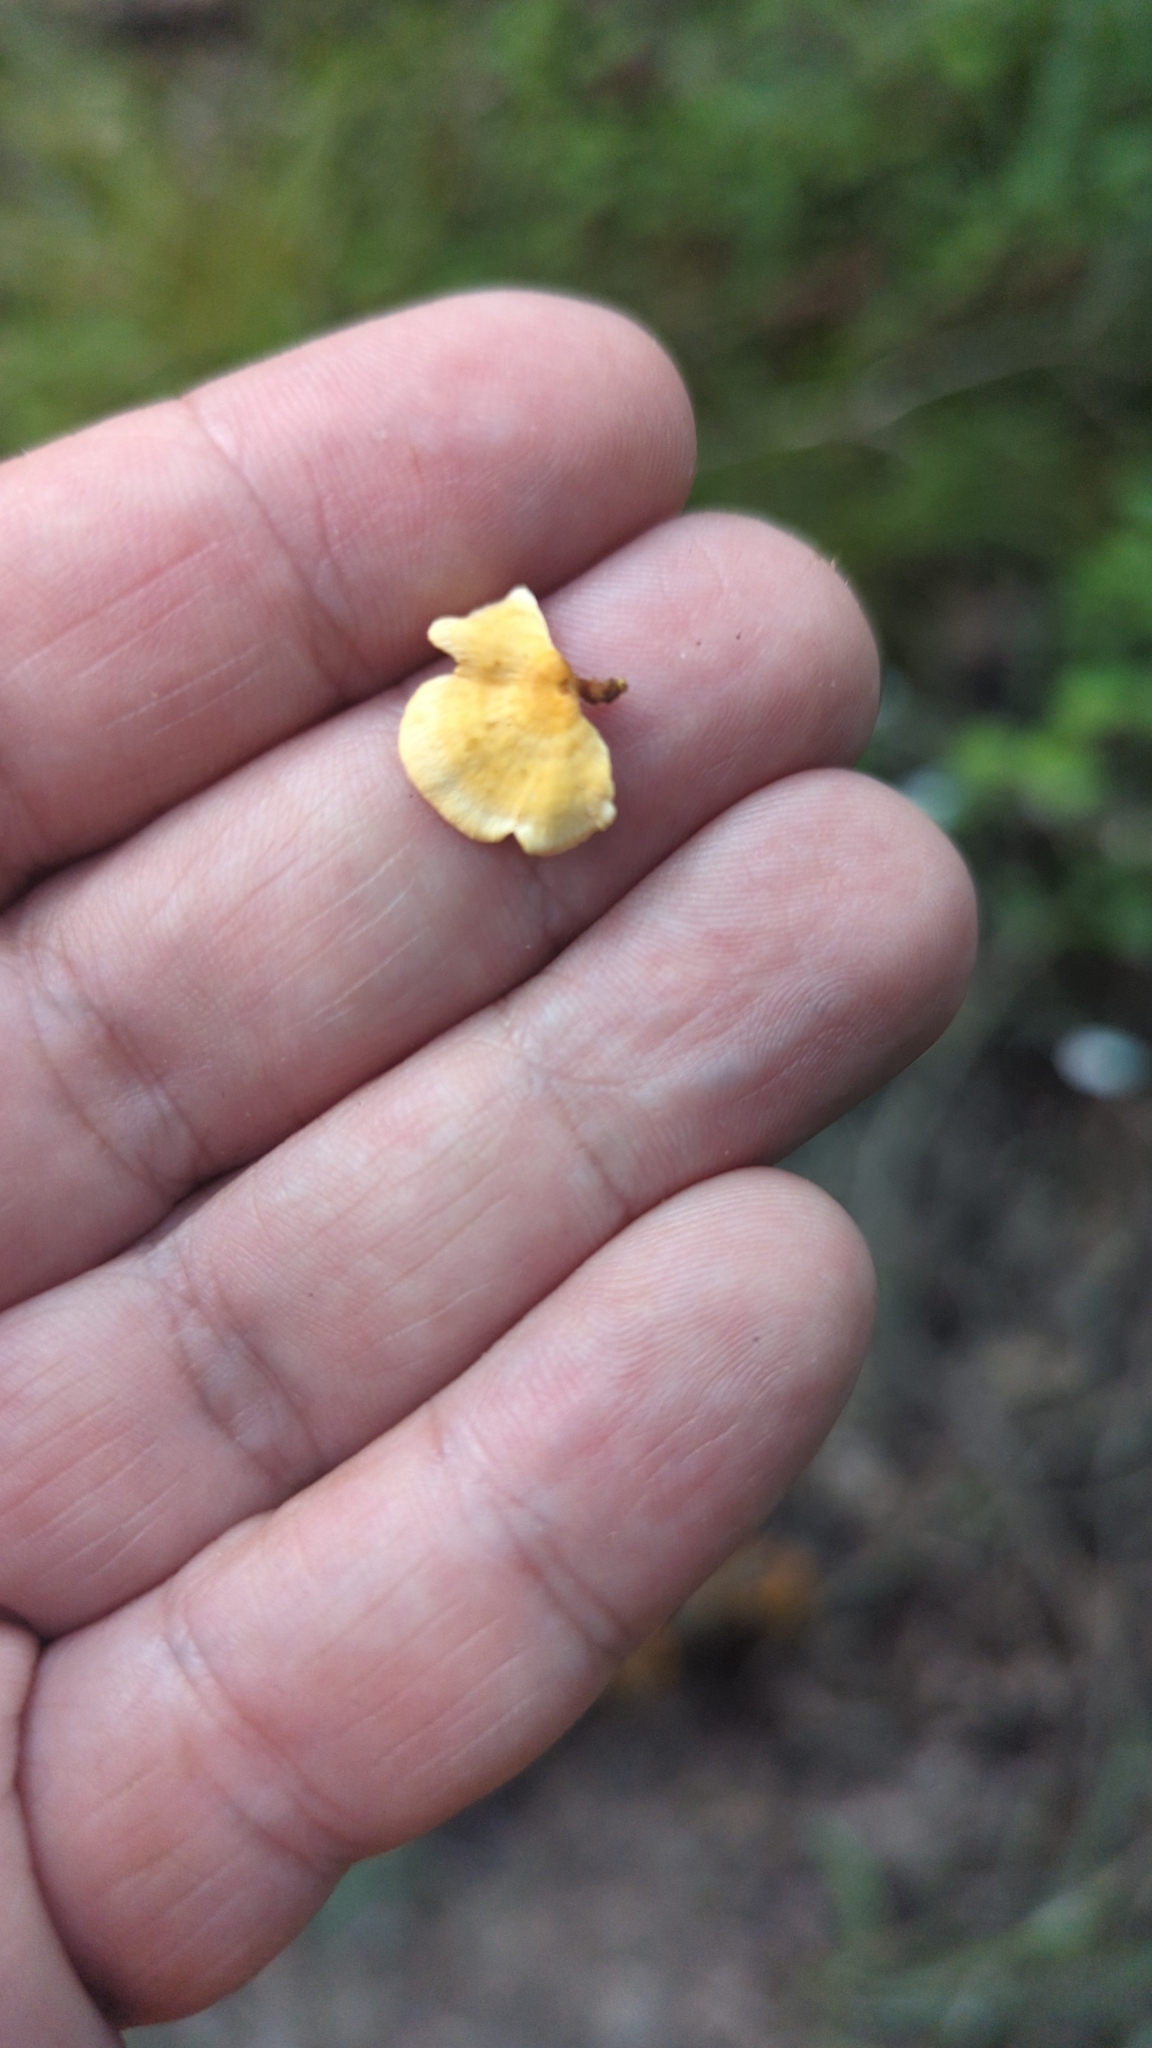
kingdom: Fungi
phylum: Basidiomycota
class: Agaricomycetes
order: Russulales
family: Stereaceae
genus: Stereum
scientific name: Stereum complicatum
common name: Crowded parchment
